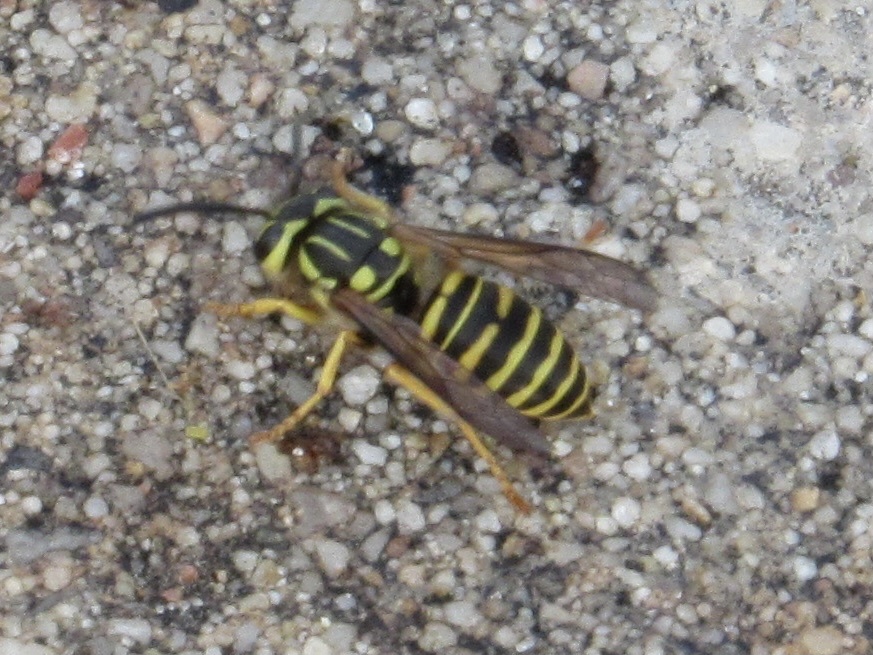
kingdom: Animalia
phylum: Arthropoda
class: Insecta
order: Hymenoptera
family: Vespidae
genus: Vespula
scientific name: Vespula squamosa
